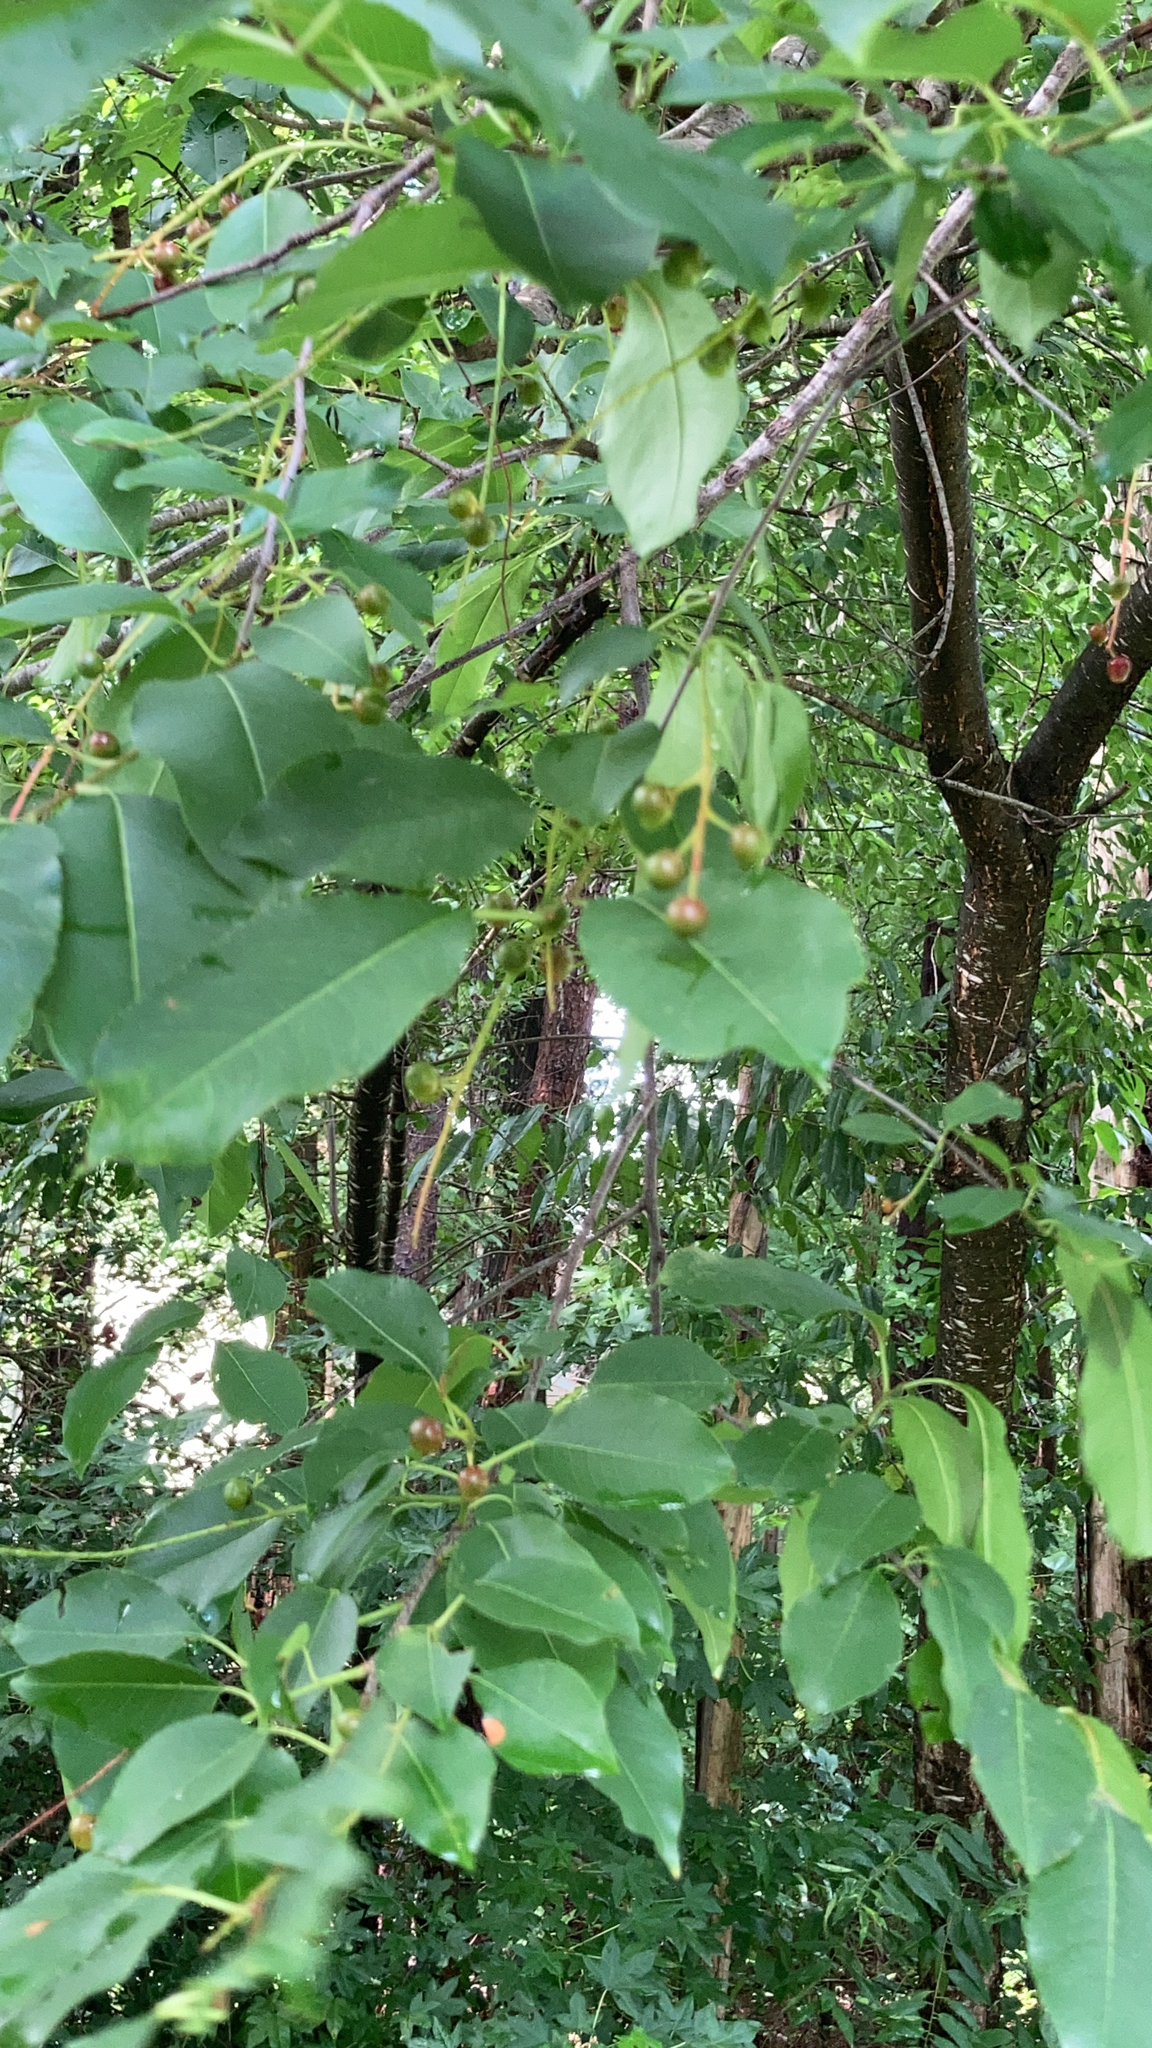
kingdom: Plantae
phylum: Tracheophyta
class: Magnoliopsida
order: Rosales
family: Rosaceae
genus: Prunus
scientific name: Prunus serotina
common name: Black cherry
